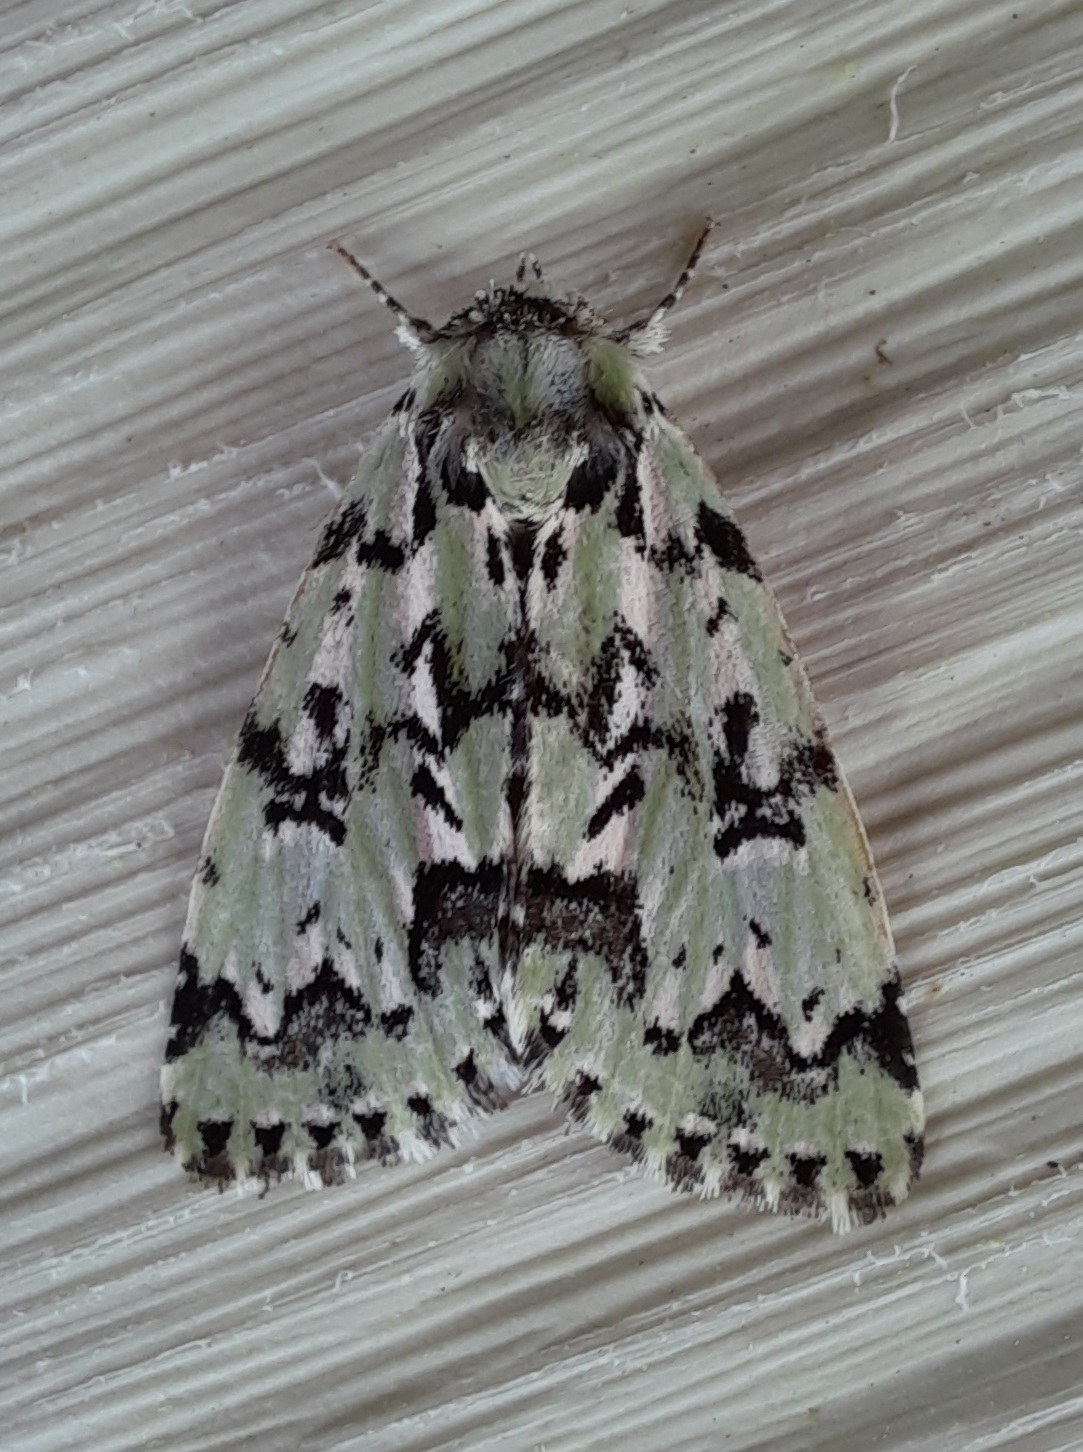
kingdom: Animalia
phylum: Arthropoda
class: Insecta
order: Lepidoptera
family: Noctuidae
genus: Moma
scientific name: Moma alpium
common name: Scarce merveille du jour
